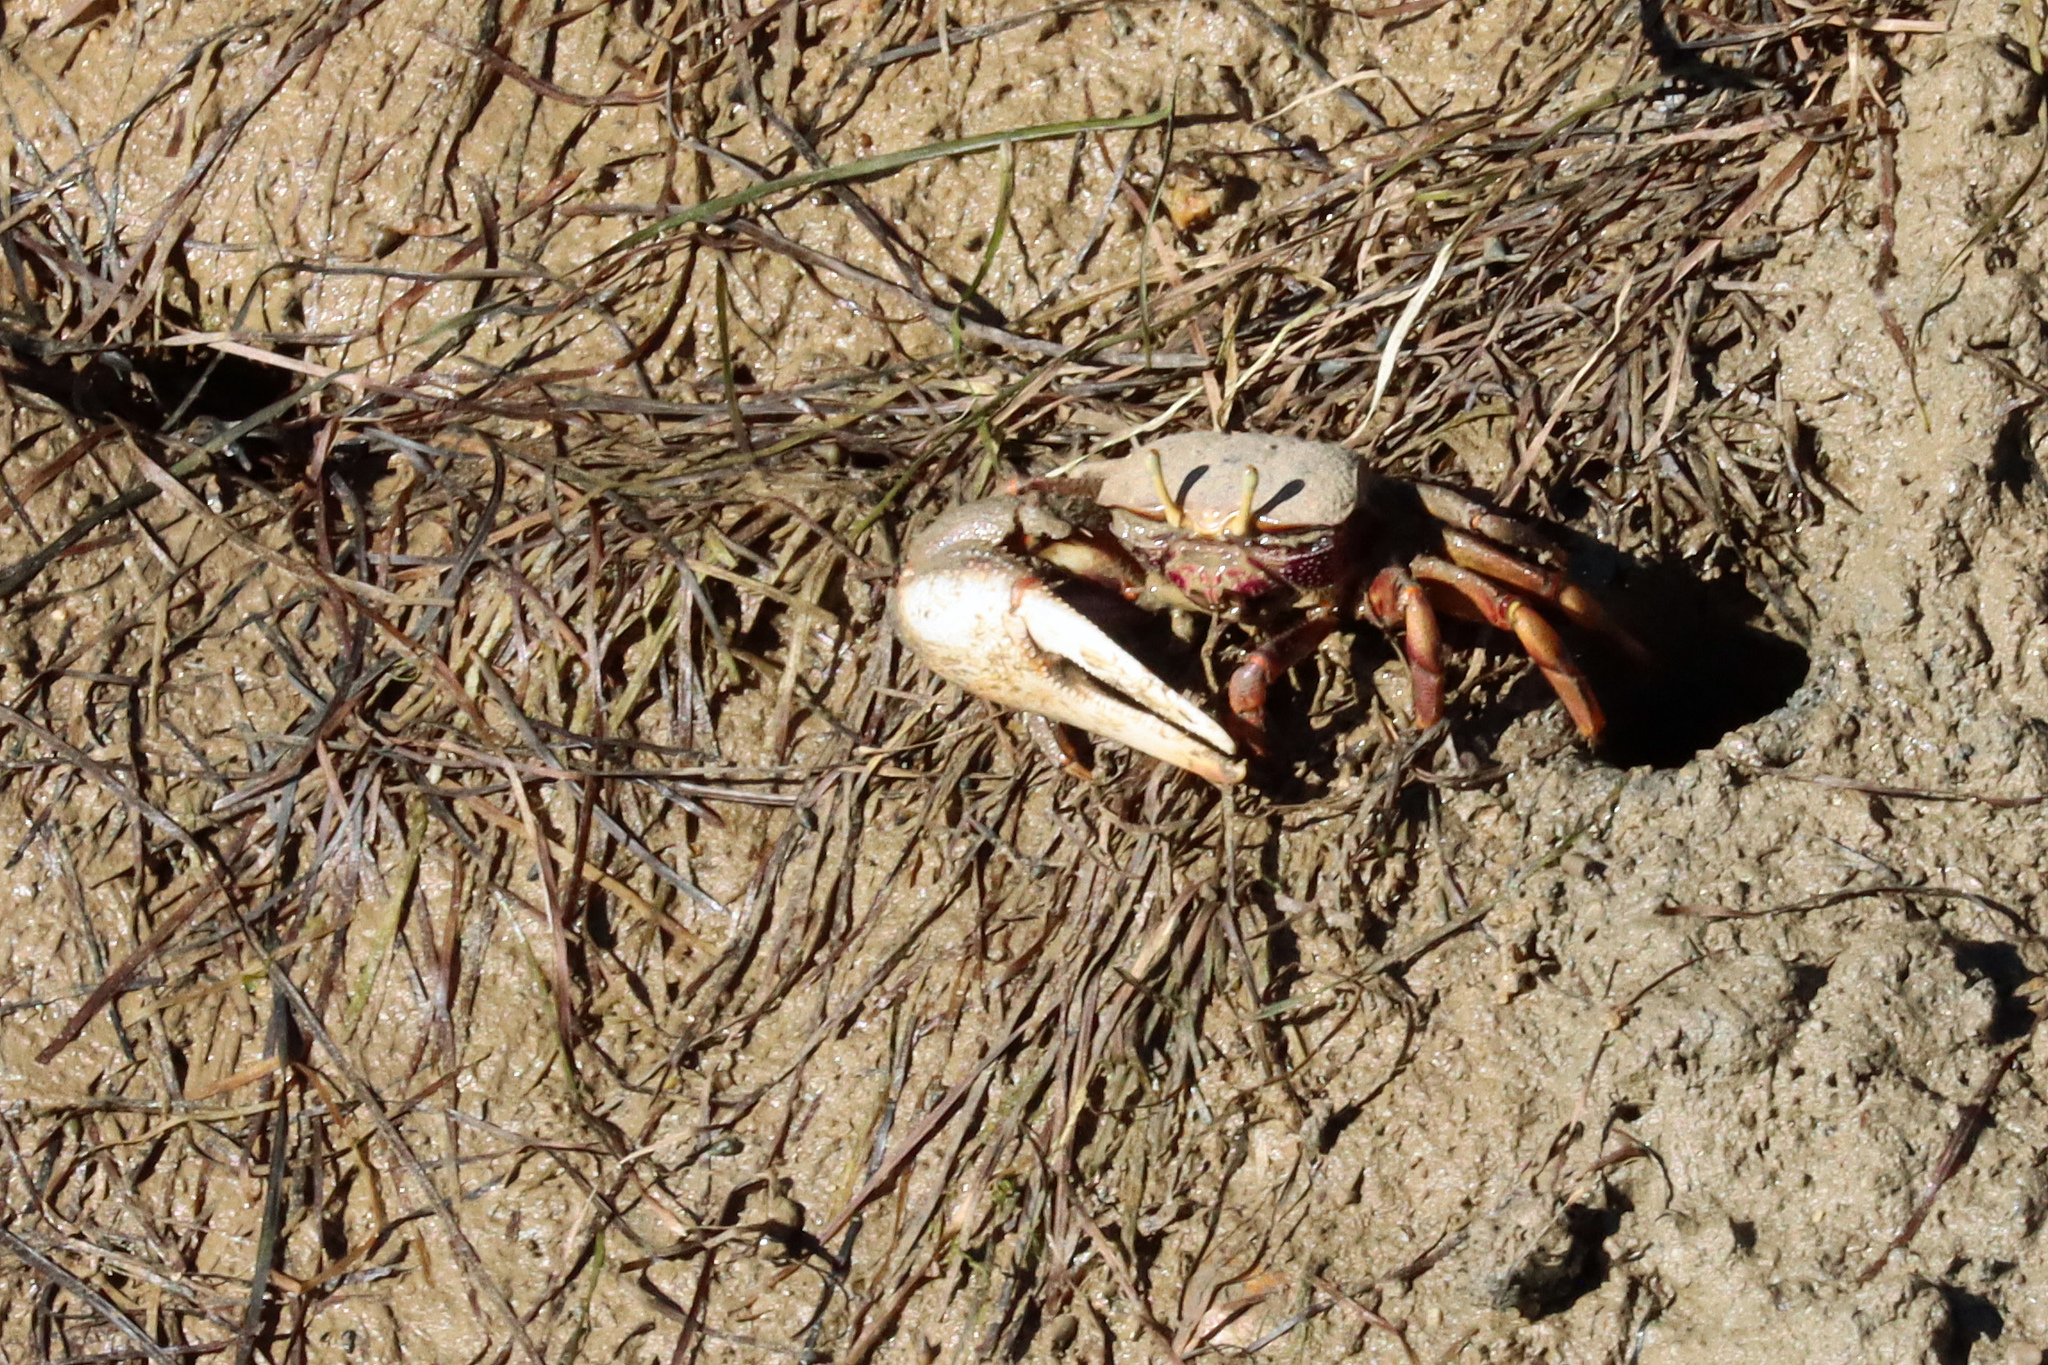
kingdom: Animalia
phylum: Arthropoda
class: Malacostraca
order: Decapoda
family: Ocypodidae
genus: Afruca
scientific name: Afruca tangeri
